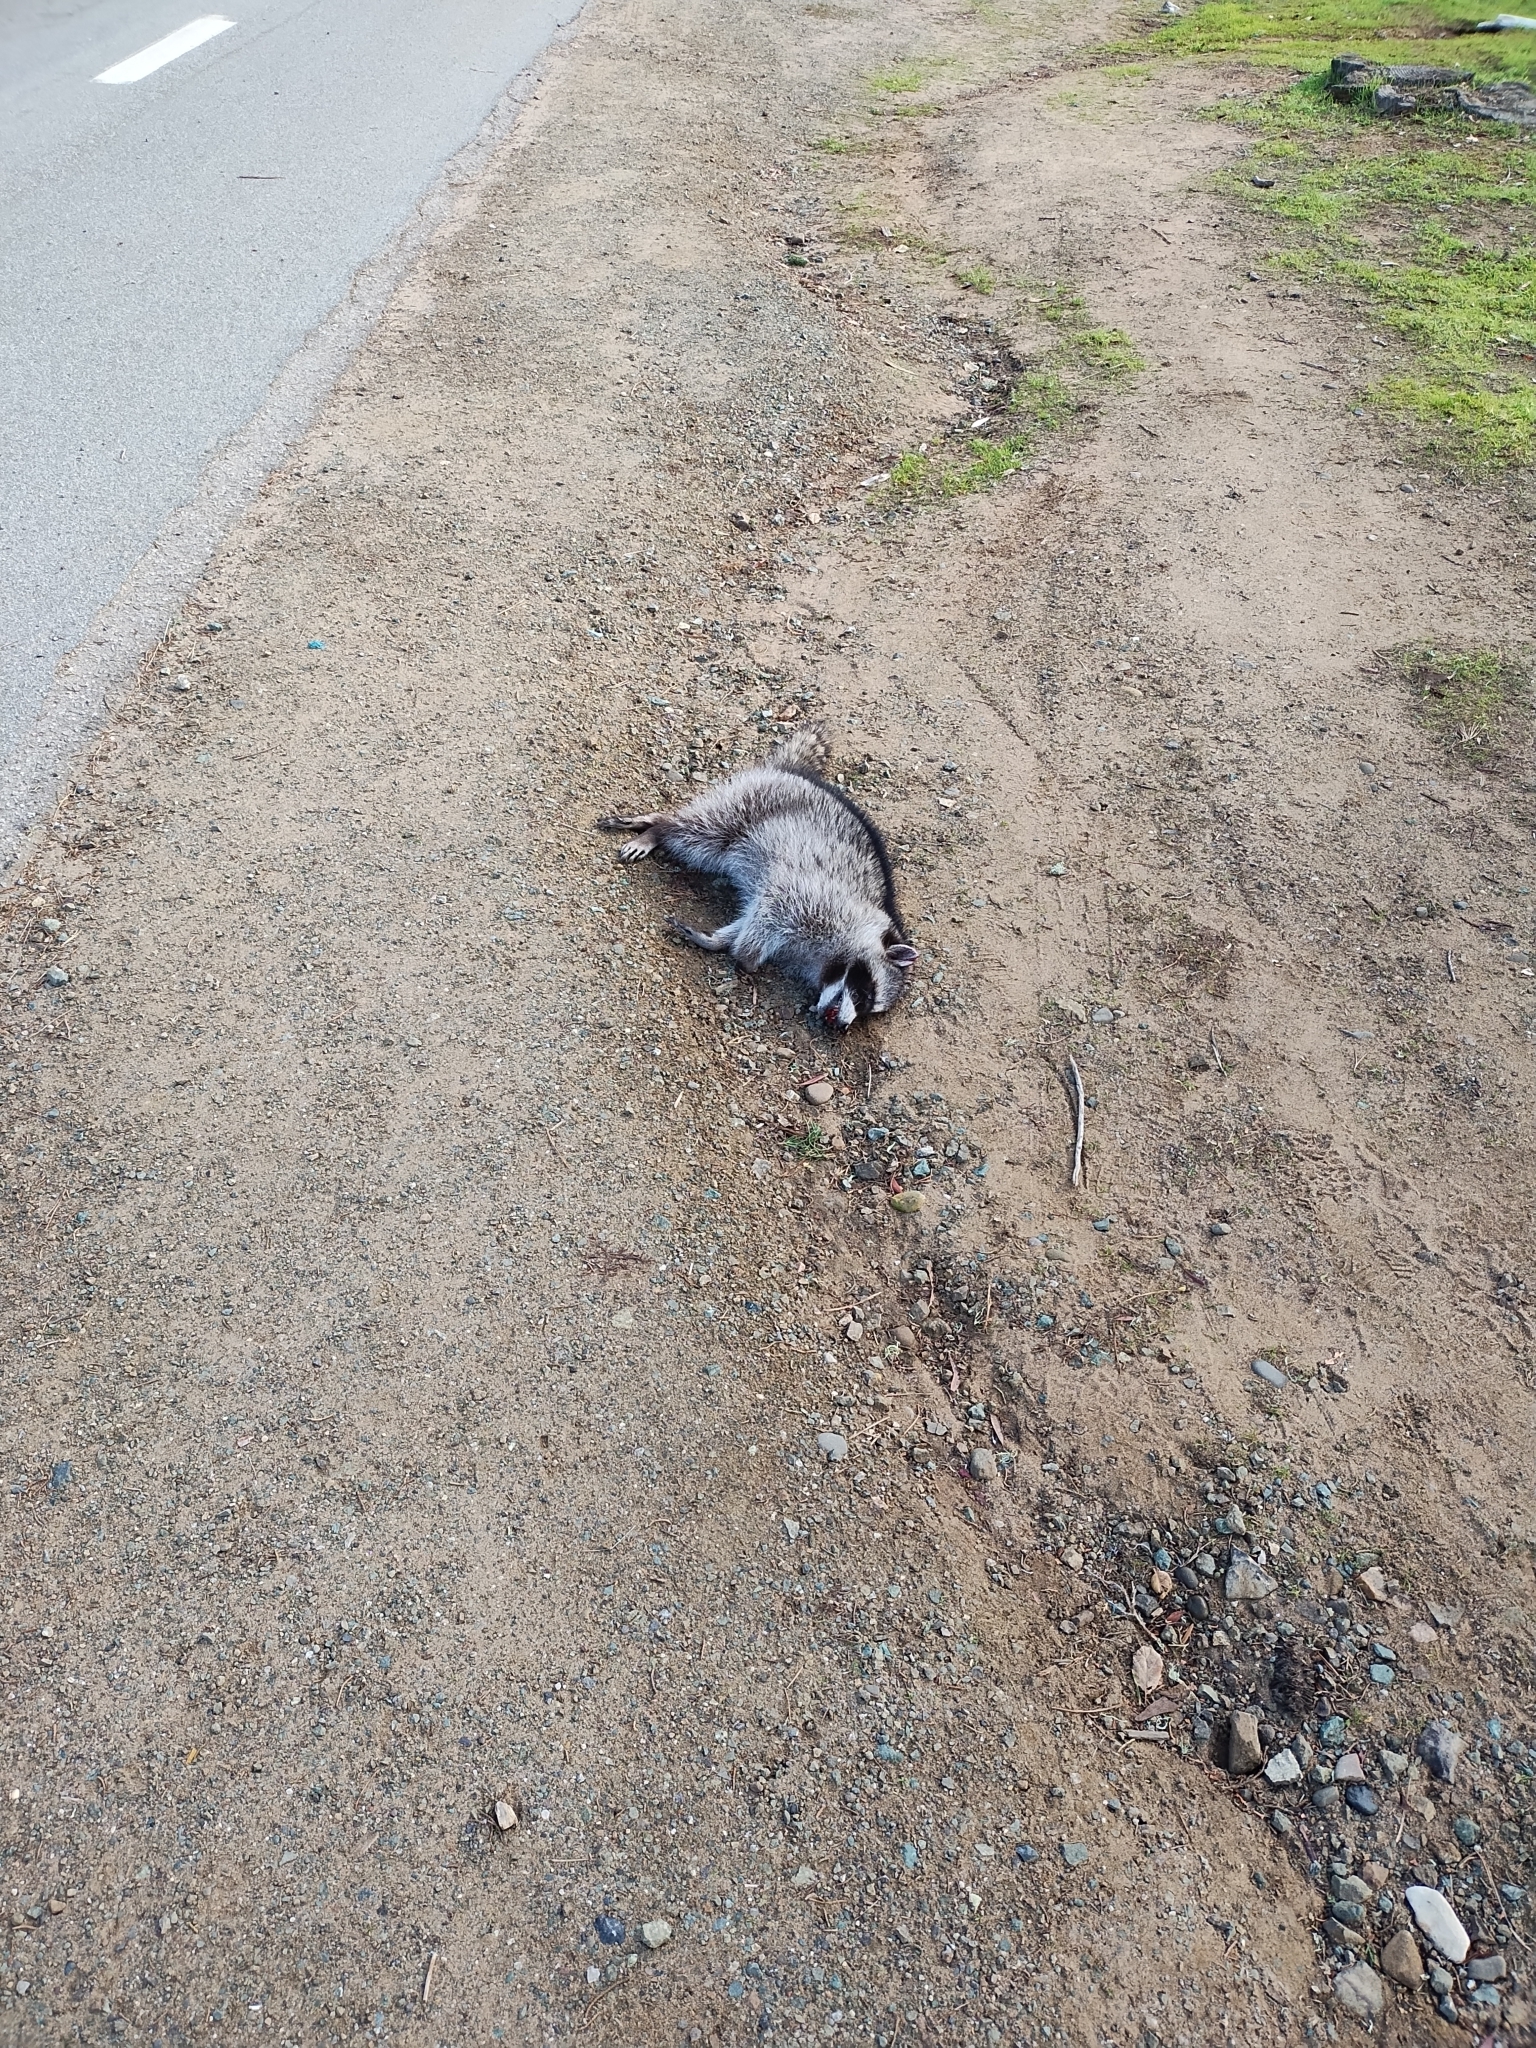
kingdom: Animalia
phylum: Chordata
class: Mammalia
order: Carnivora
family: Procyonidae
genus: Procyon
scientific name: Procyon lotor
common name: Raccoon
